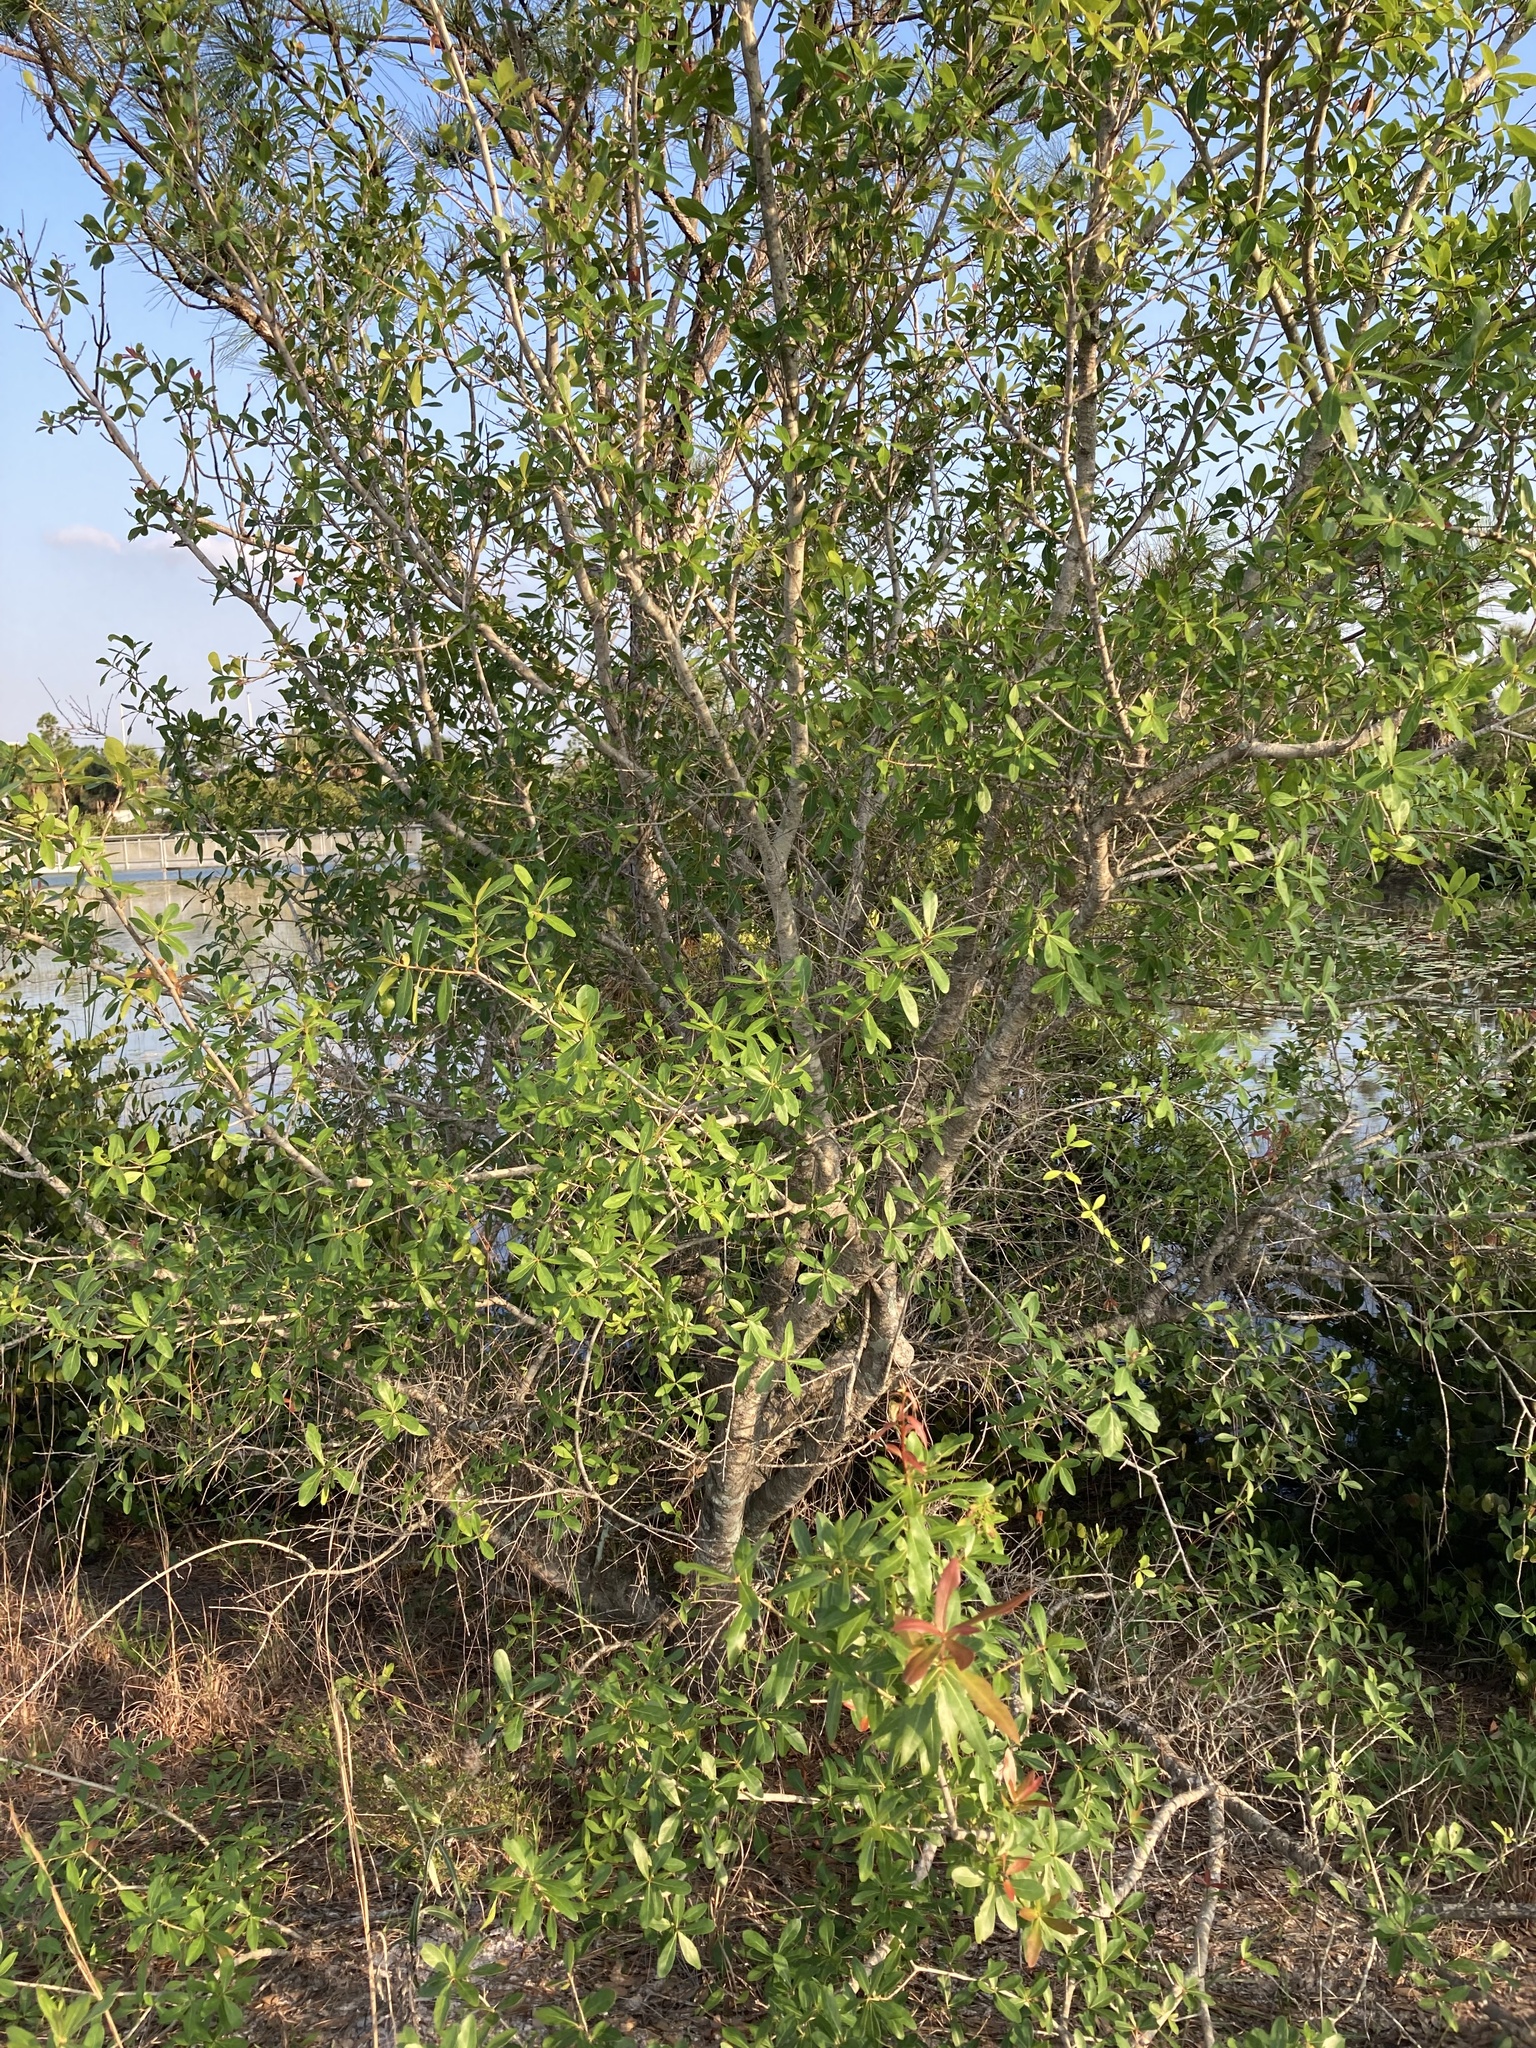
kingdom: Plantae
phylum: Tracheophyta
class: Magnoliopsida
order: Fagales
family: Fagaceae
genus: Quercus
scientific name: Quercus laurifolia
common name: Swamp laurel oak
